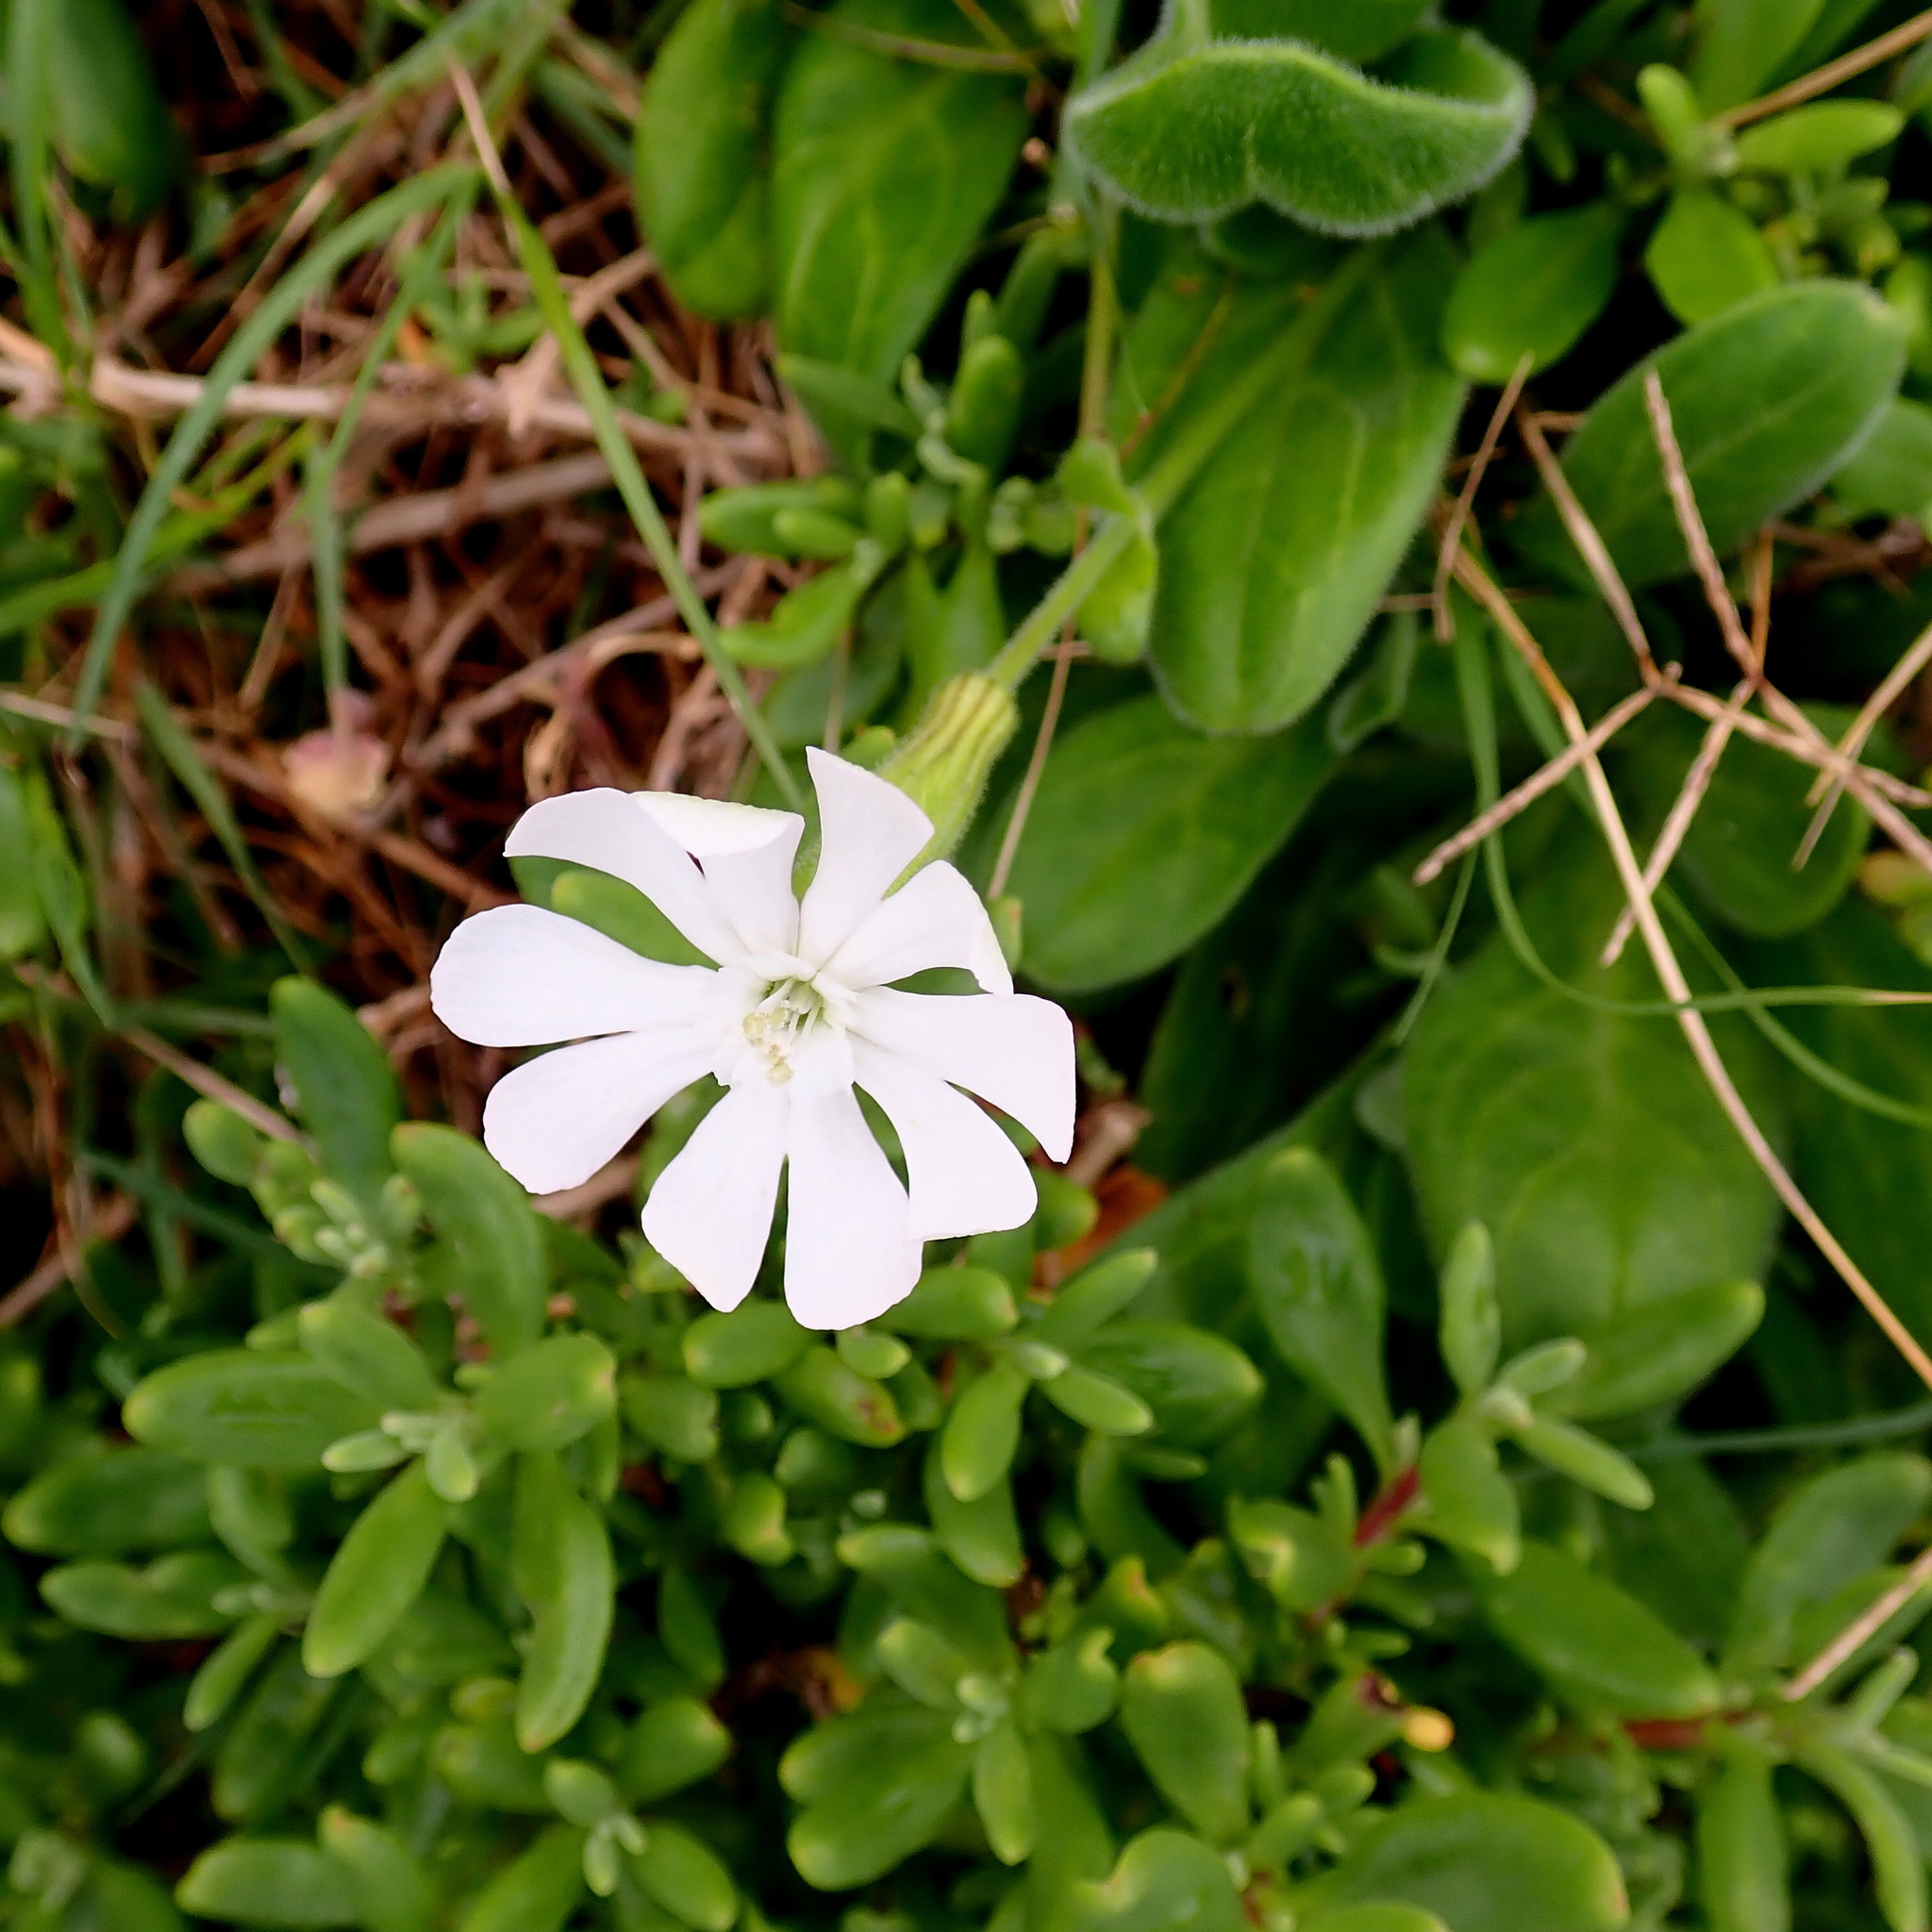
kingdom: Plantae
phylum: Tracheophyta
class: Magnoliopsida
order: Caryophyllales
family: Caryophyllaceae
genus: Silene
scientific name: Silene undulata
